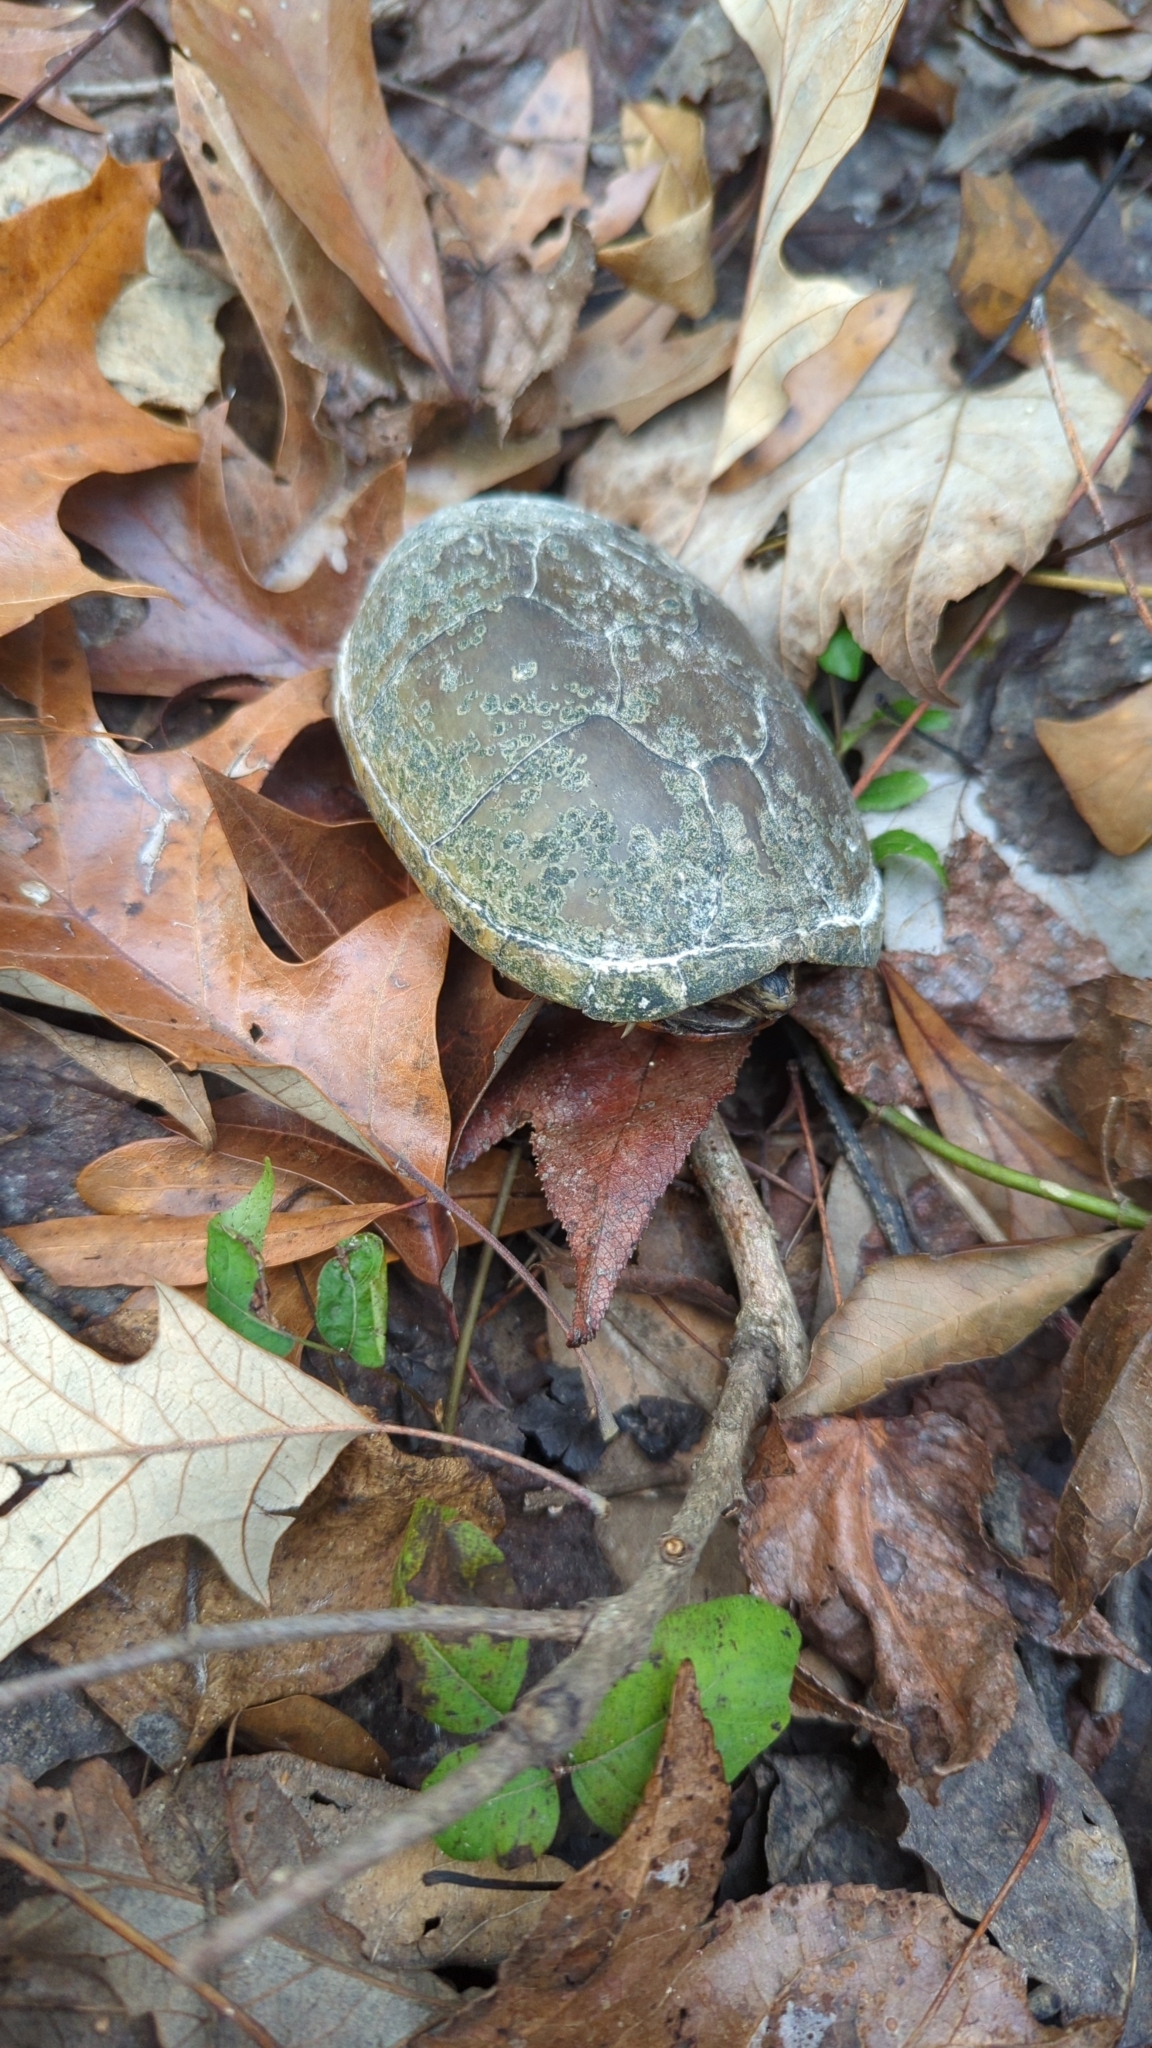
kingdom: Animalia
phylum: Chordata
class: Testudines
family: Kinosternidae
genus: Kinosternon
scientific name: Kinosternon subrubrum
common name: Eastern mud turtle
